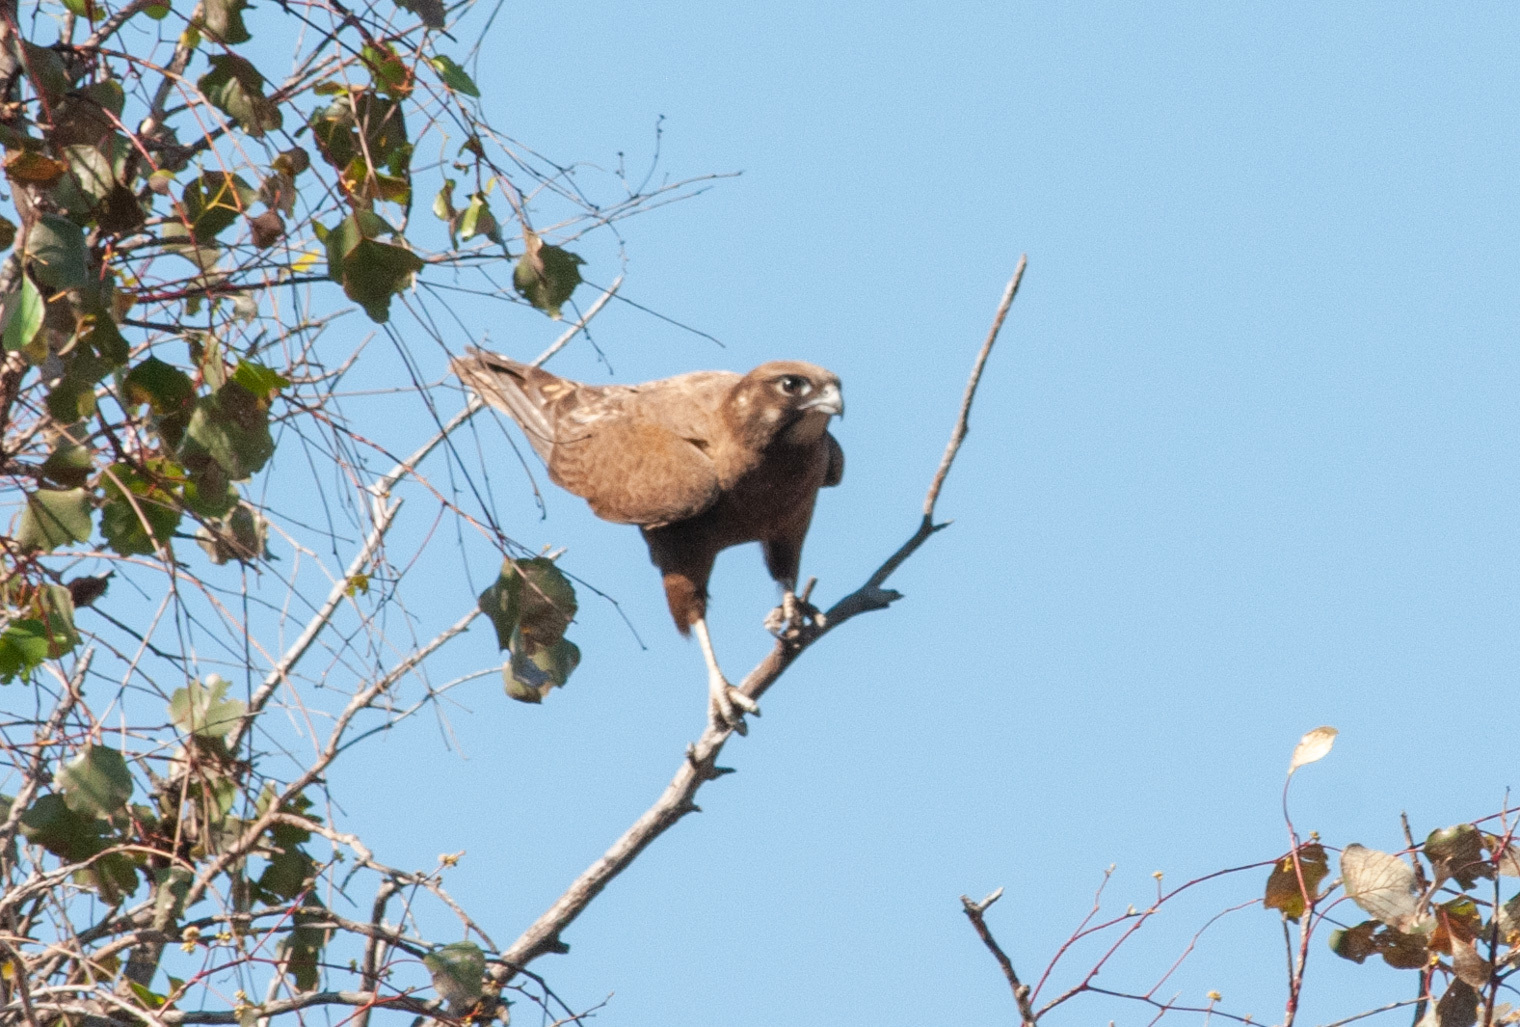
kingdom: Animalia
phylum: Chordata
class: Aves
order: Falconiformes
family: Falconidae
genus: Falco
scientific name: Falco berigora
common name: Brown falcon
